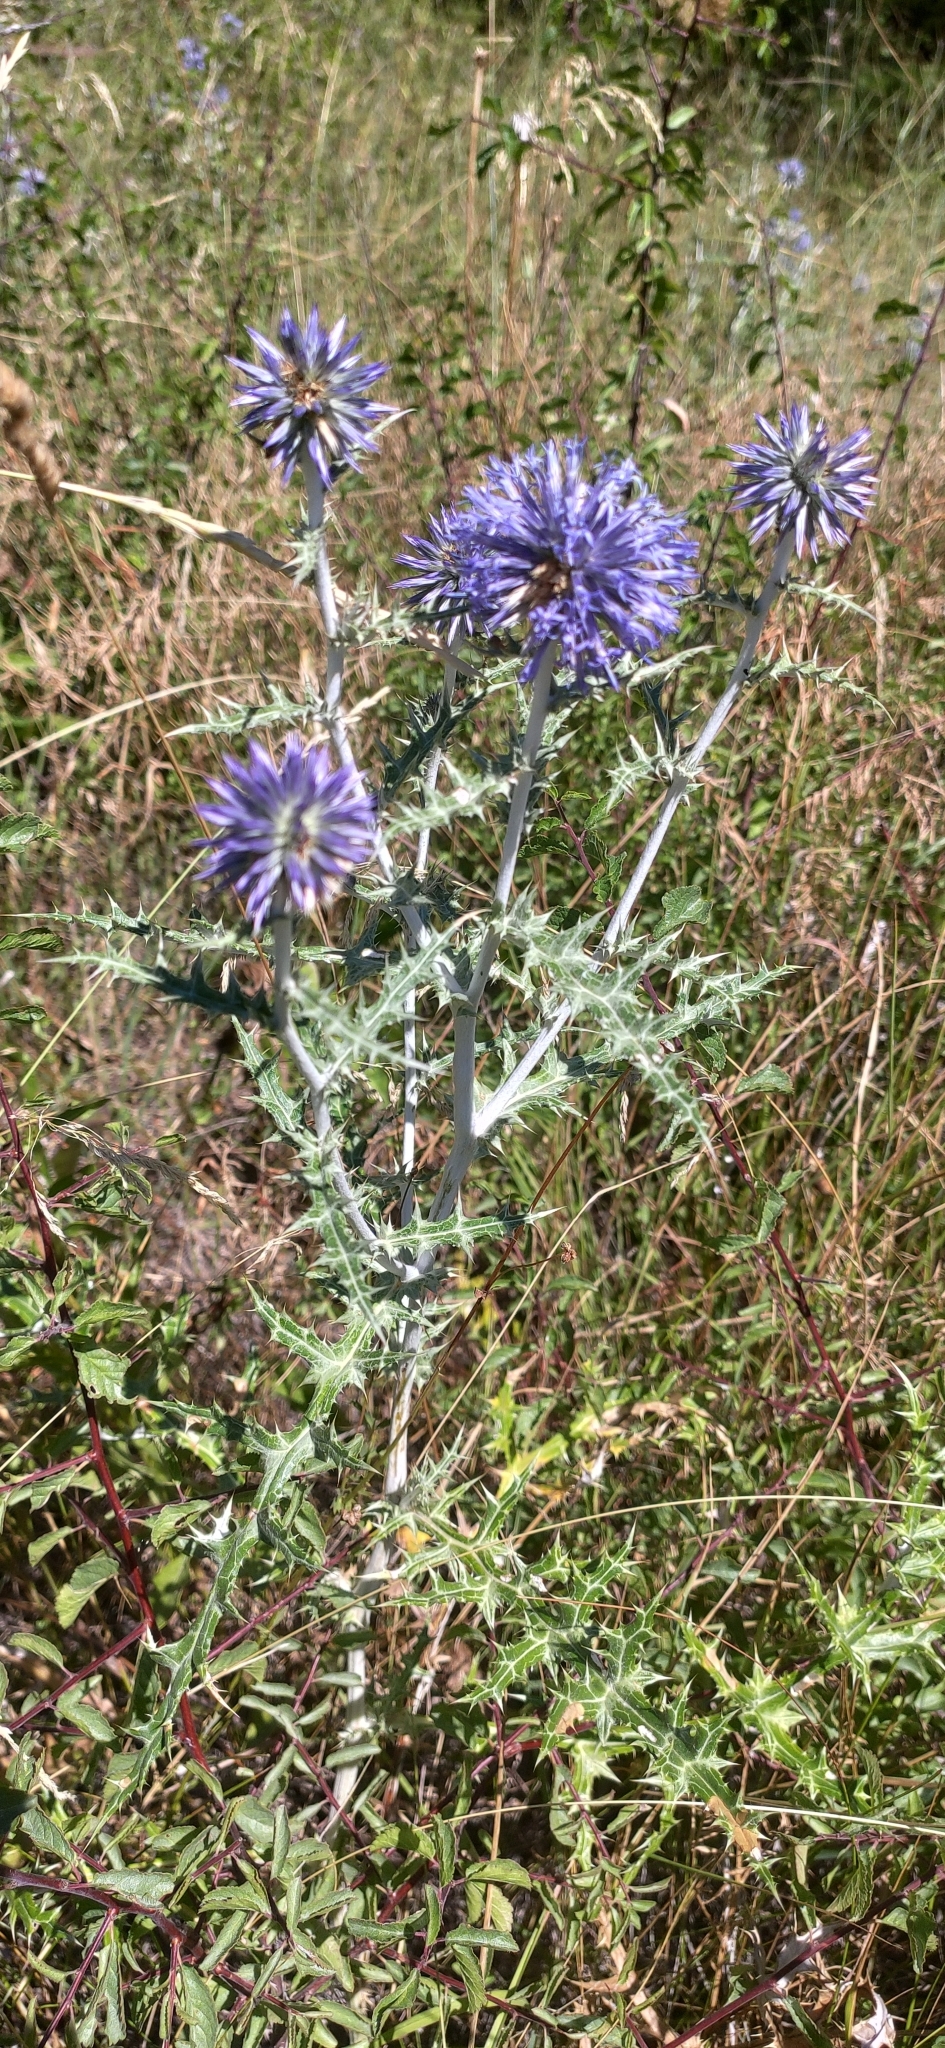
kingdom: Plantae
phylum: Tracheophyta
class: Magnoliopsida
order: Asterales
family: Asteraceae
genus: Echinops
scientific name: Echinops ritro
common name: Globe thistle
